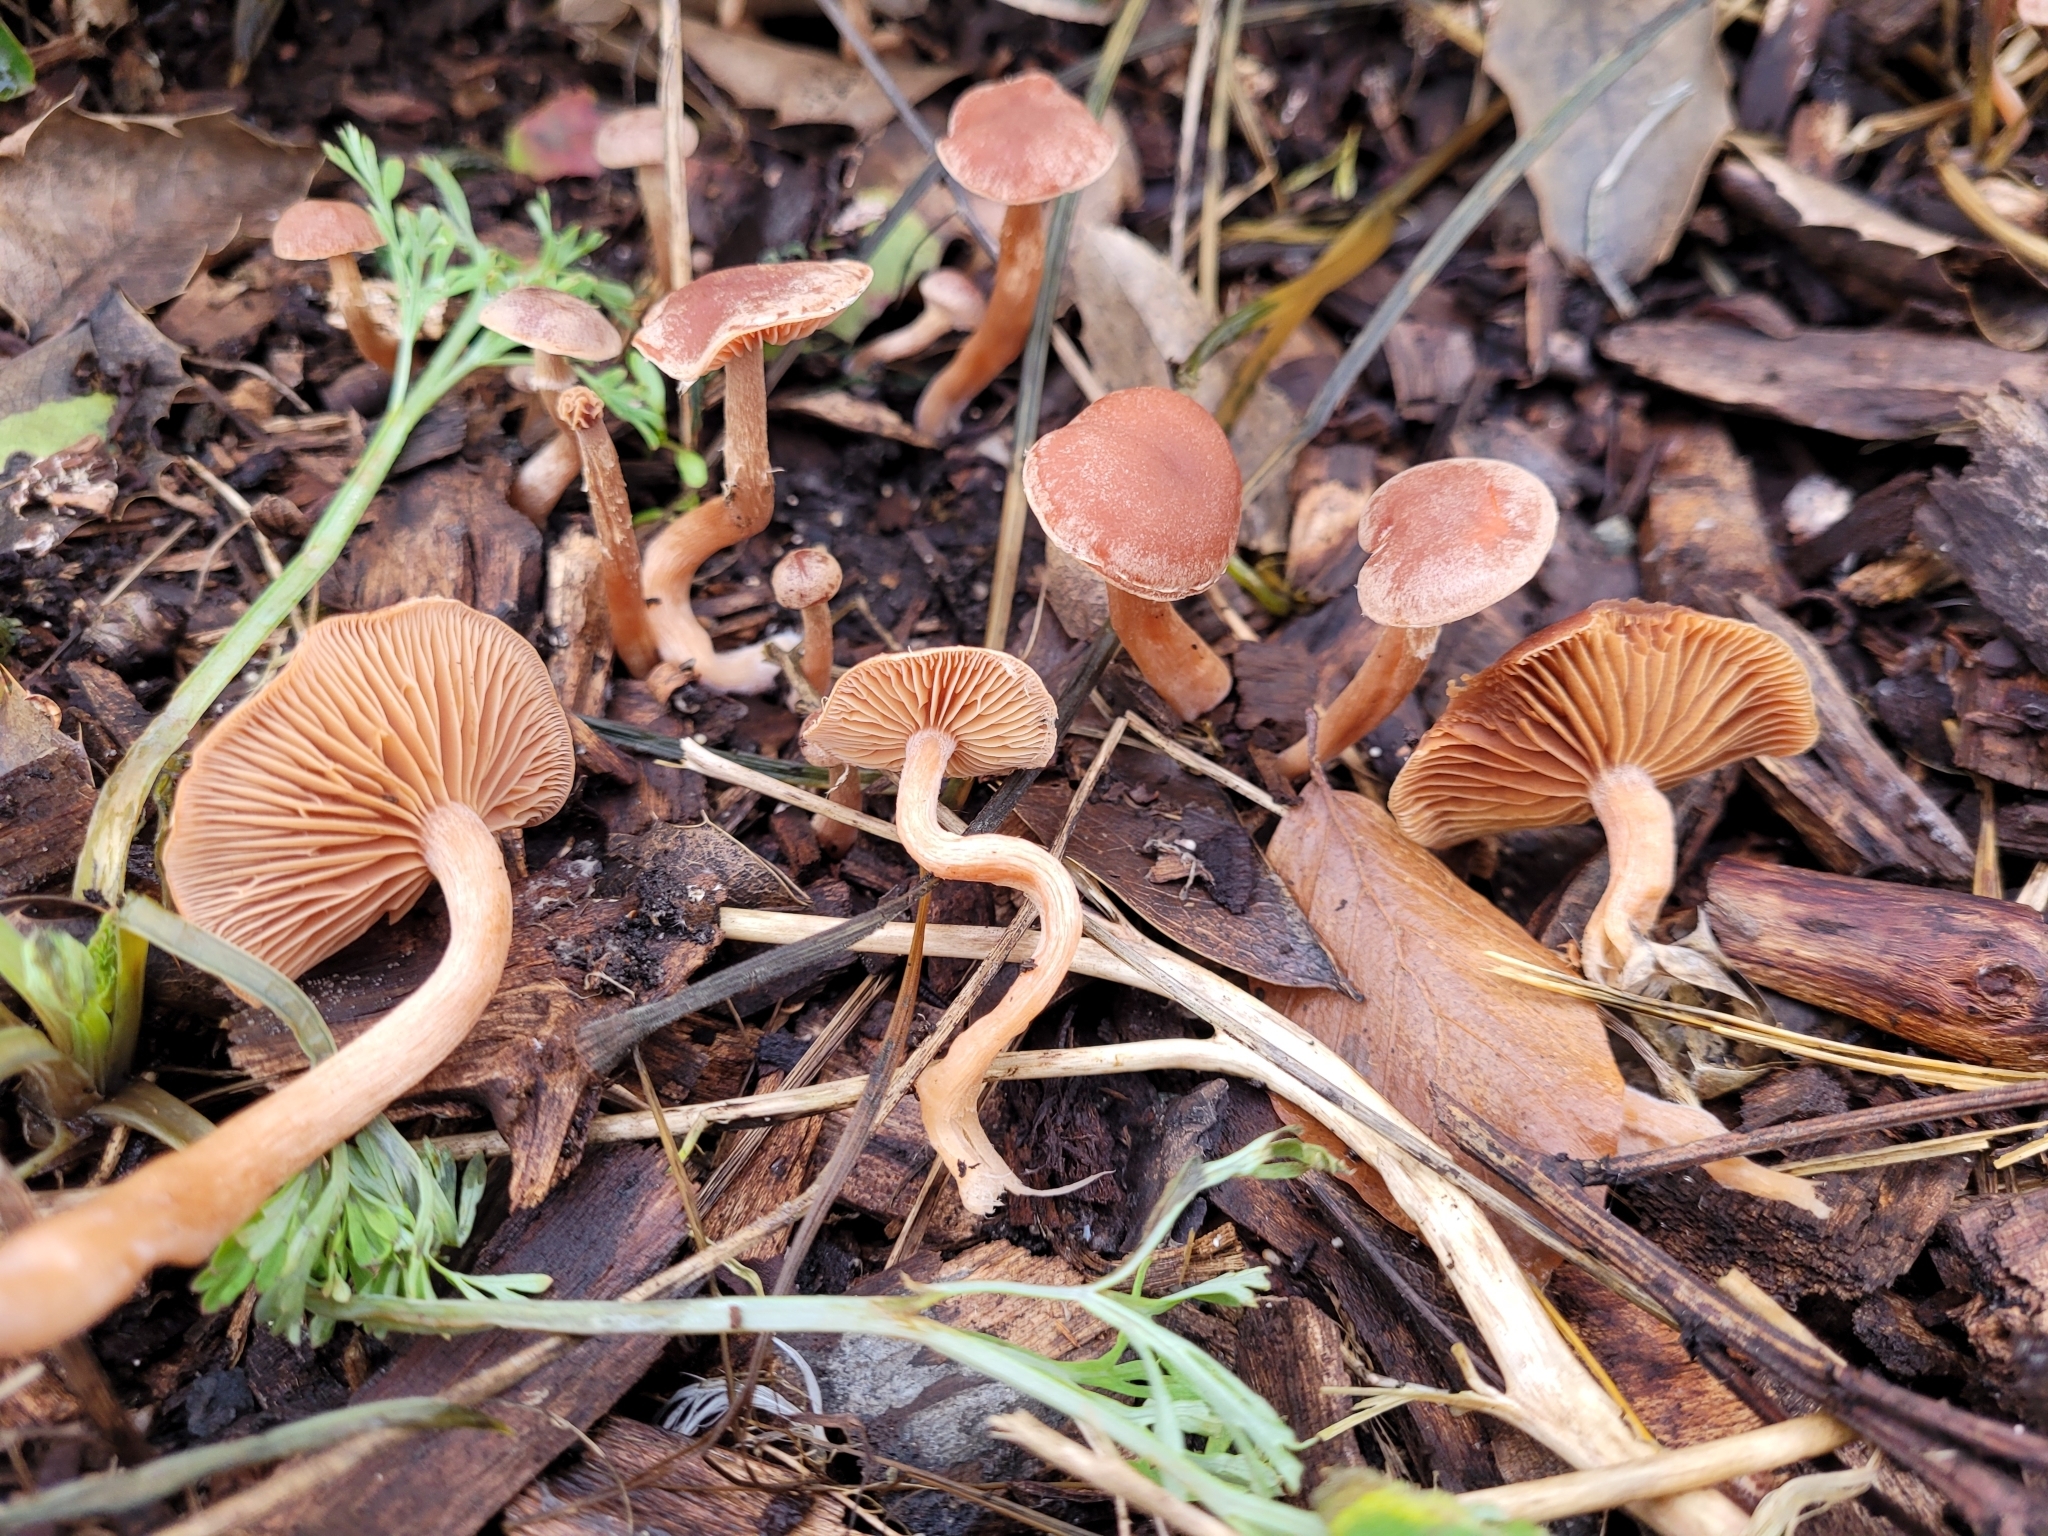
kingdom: Fungi
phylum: Basidiomycota
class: Agaricomycetes
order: Agaricales
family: Tubariaceae
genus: Tubaria
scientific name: Tubaria furfuracea
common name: Scurfy twiglet
